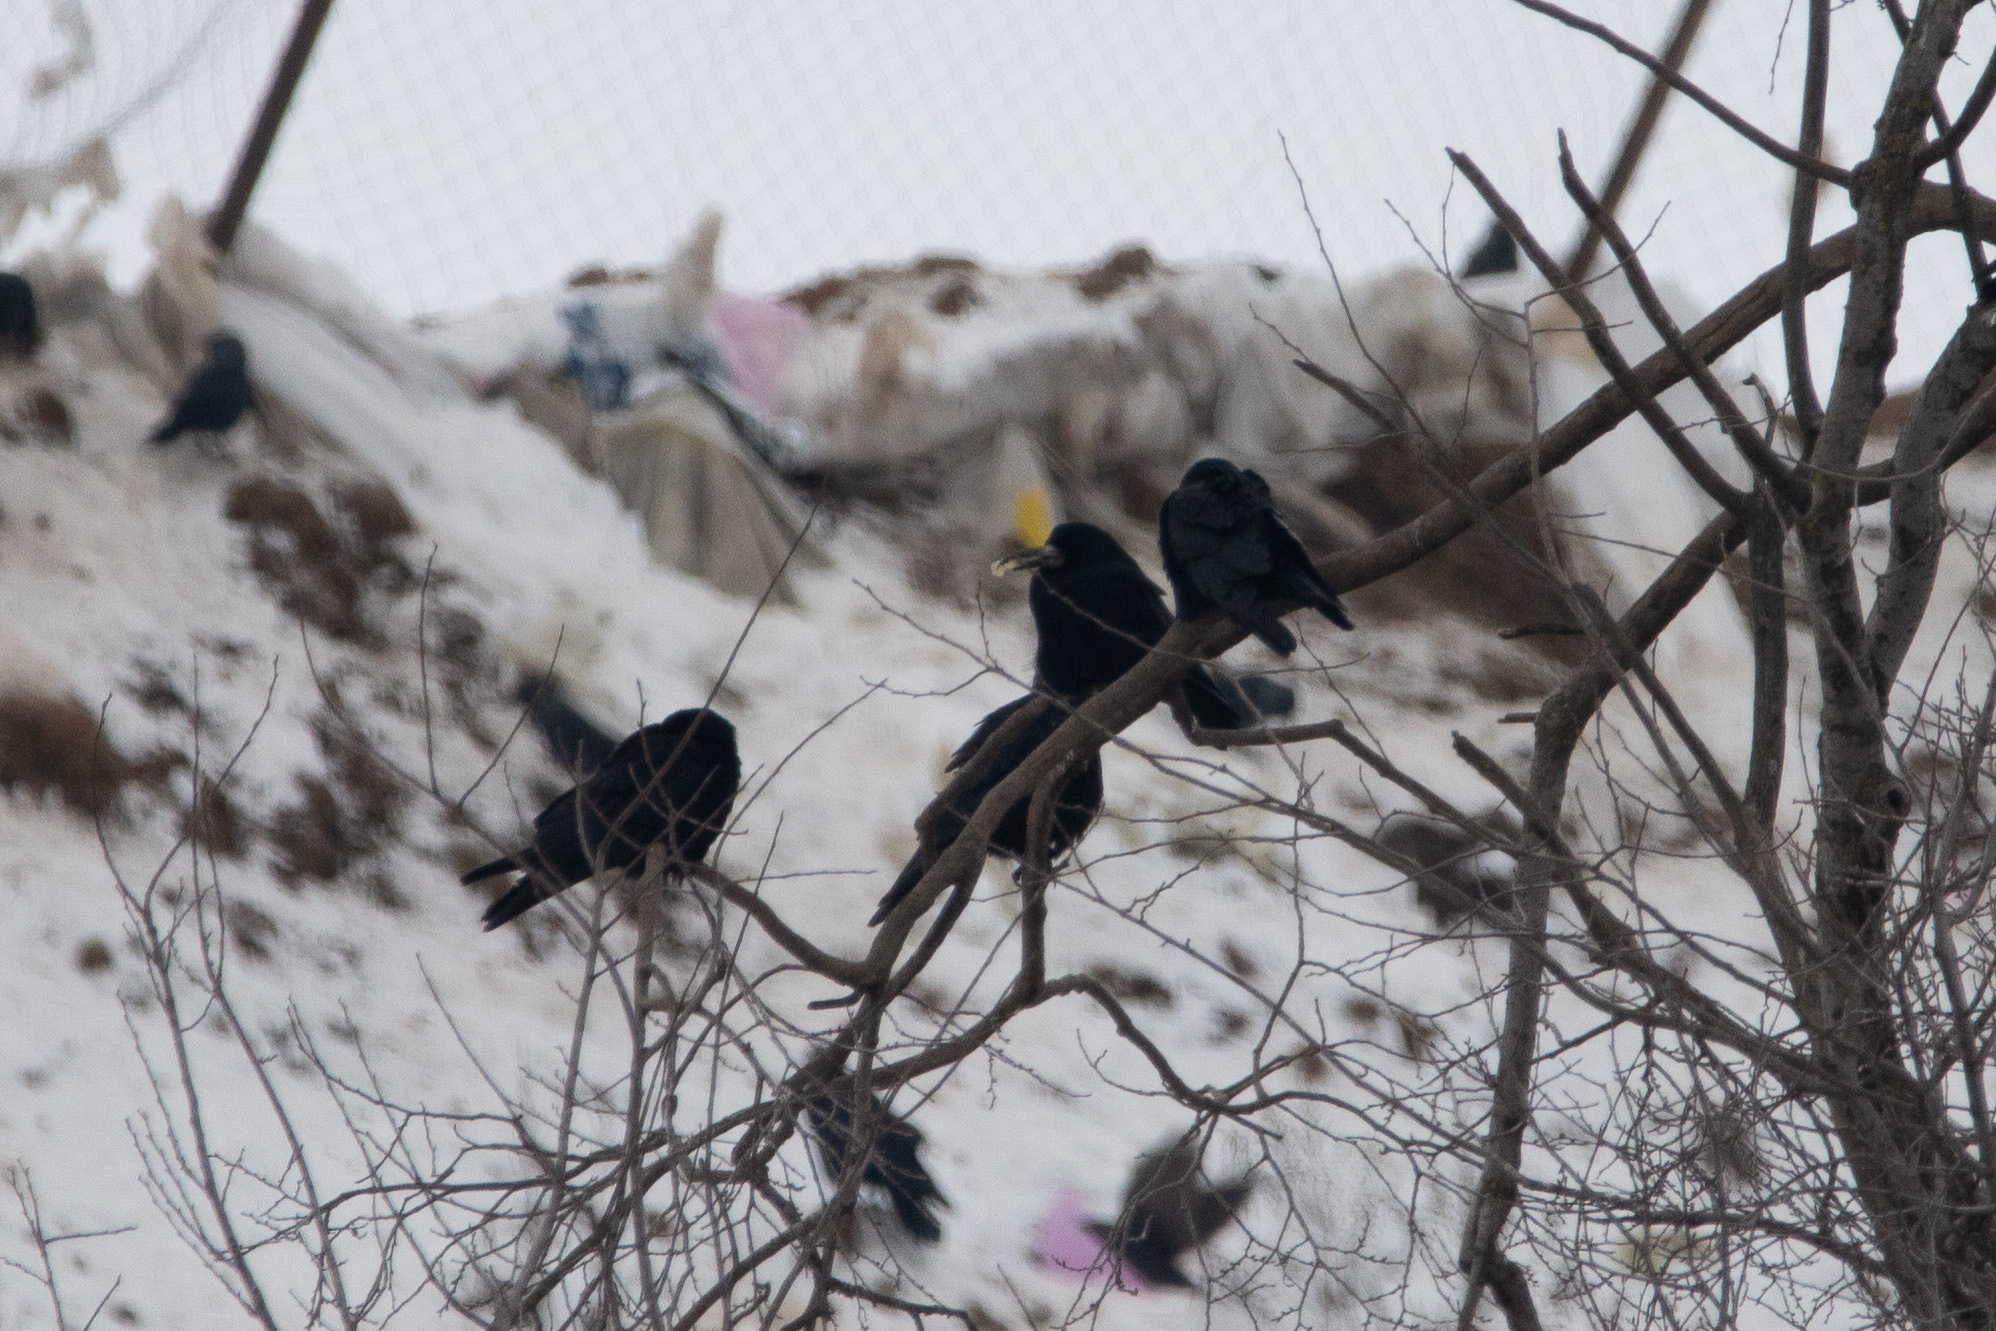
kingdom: Animalia
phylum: Chordata
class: Aves
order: Passeriformes
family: Corvidae
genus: Corvus
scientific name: Corvus frugilegus
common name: Rook
